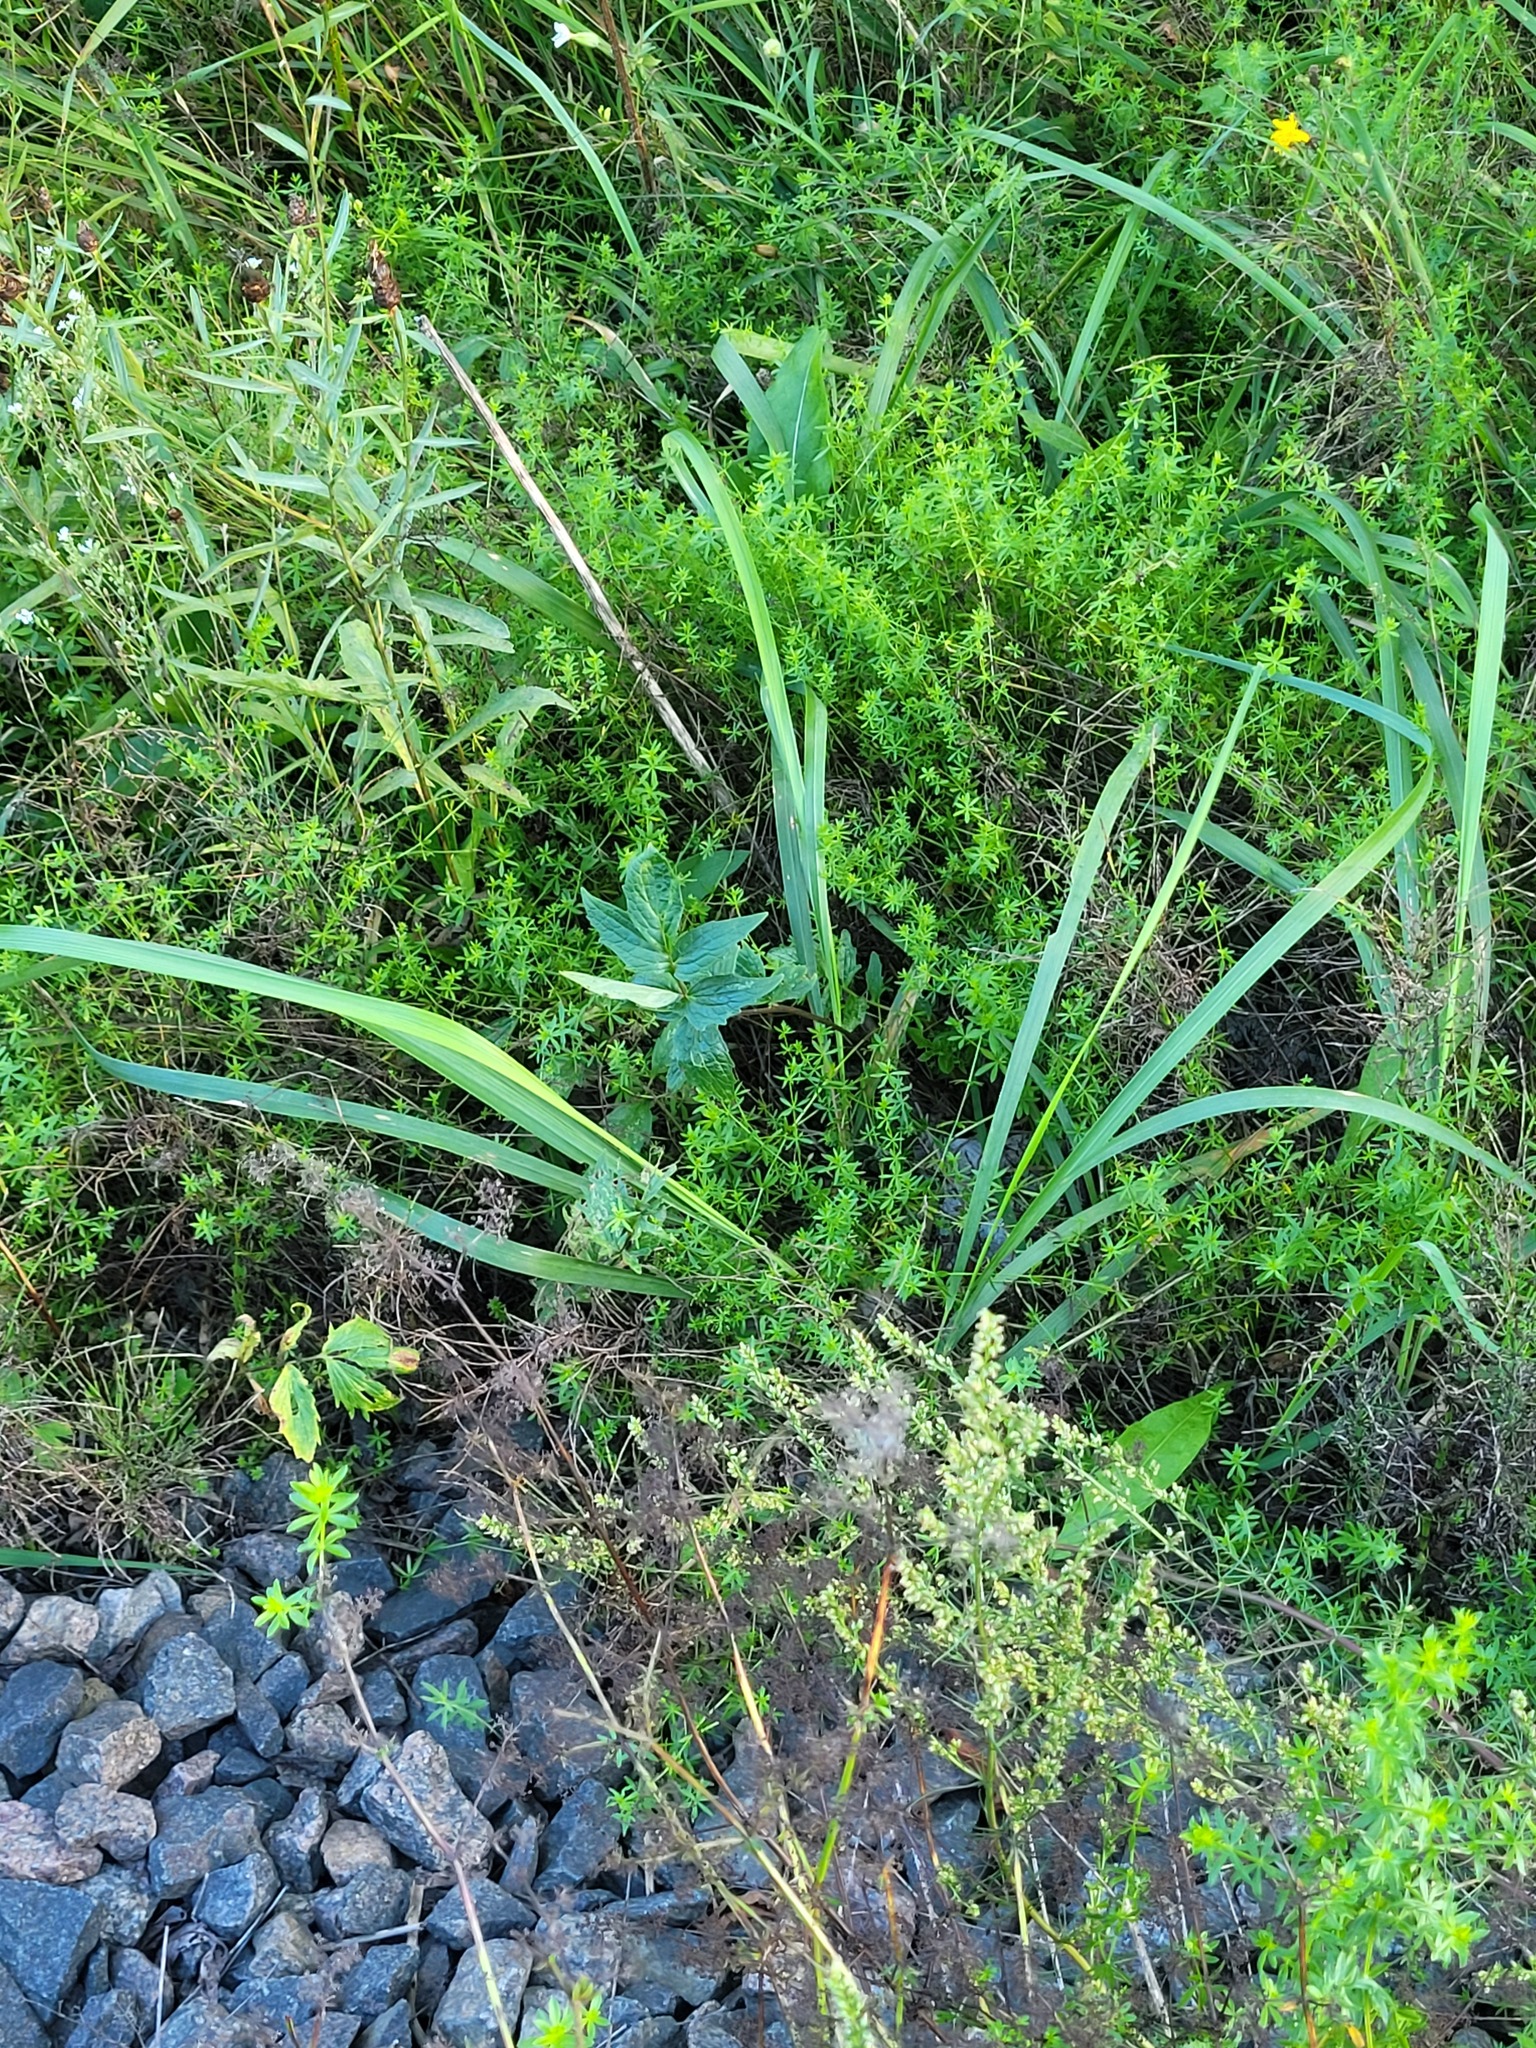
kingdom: Plantae
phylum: Tracheophyta
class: Magnoliopsida
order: Dipsacales
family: Caprifoliaceae
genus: Valeriana
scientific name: Valeriana officinalis
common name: Common valerian
